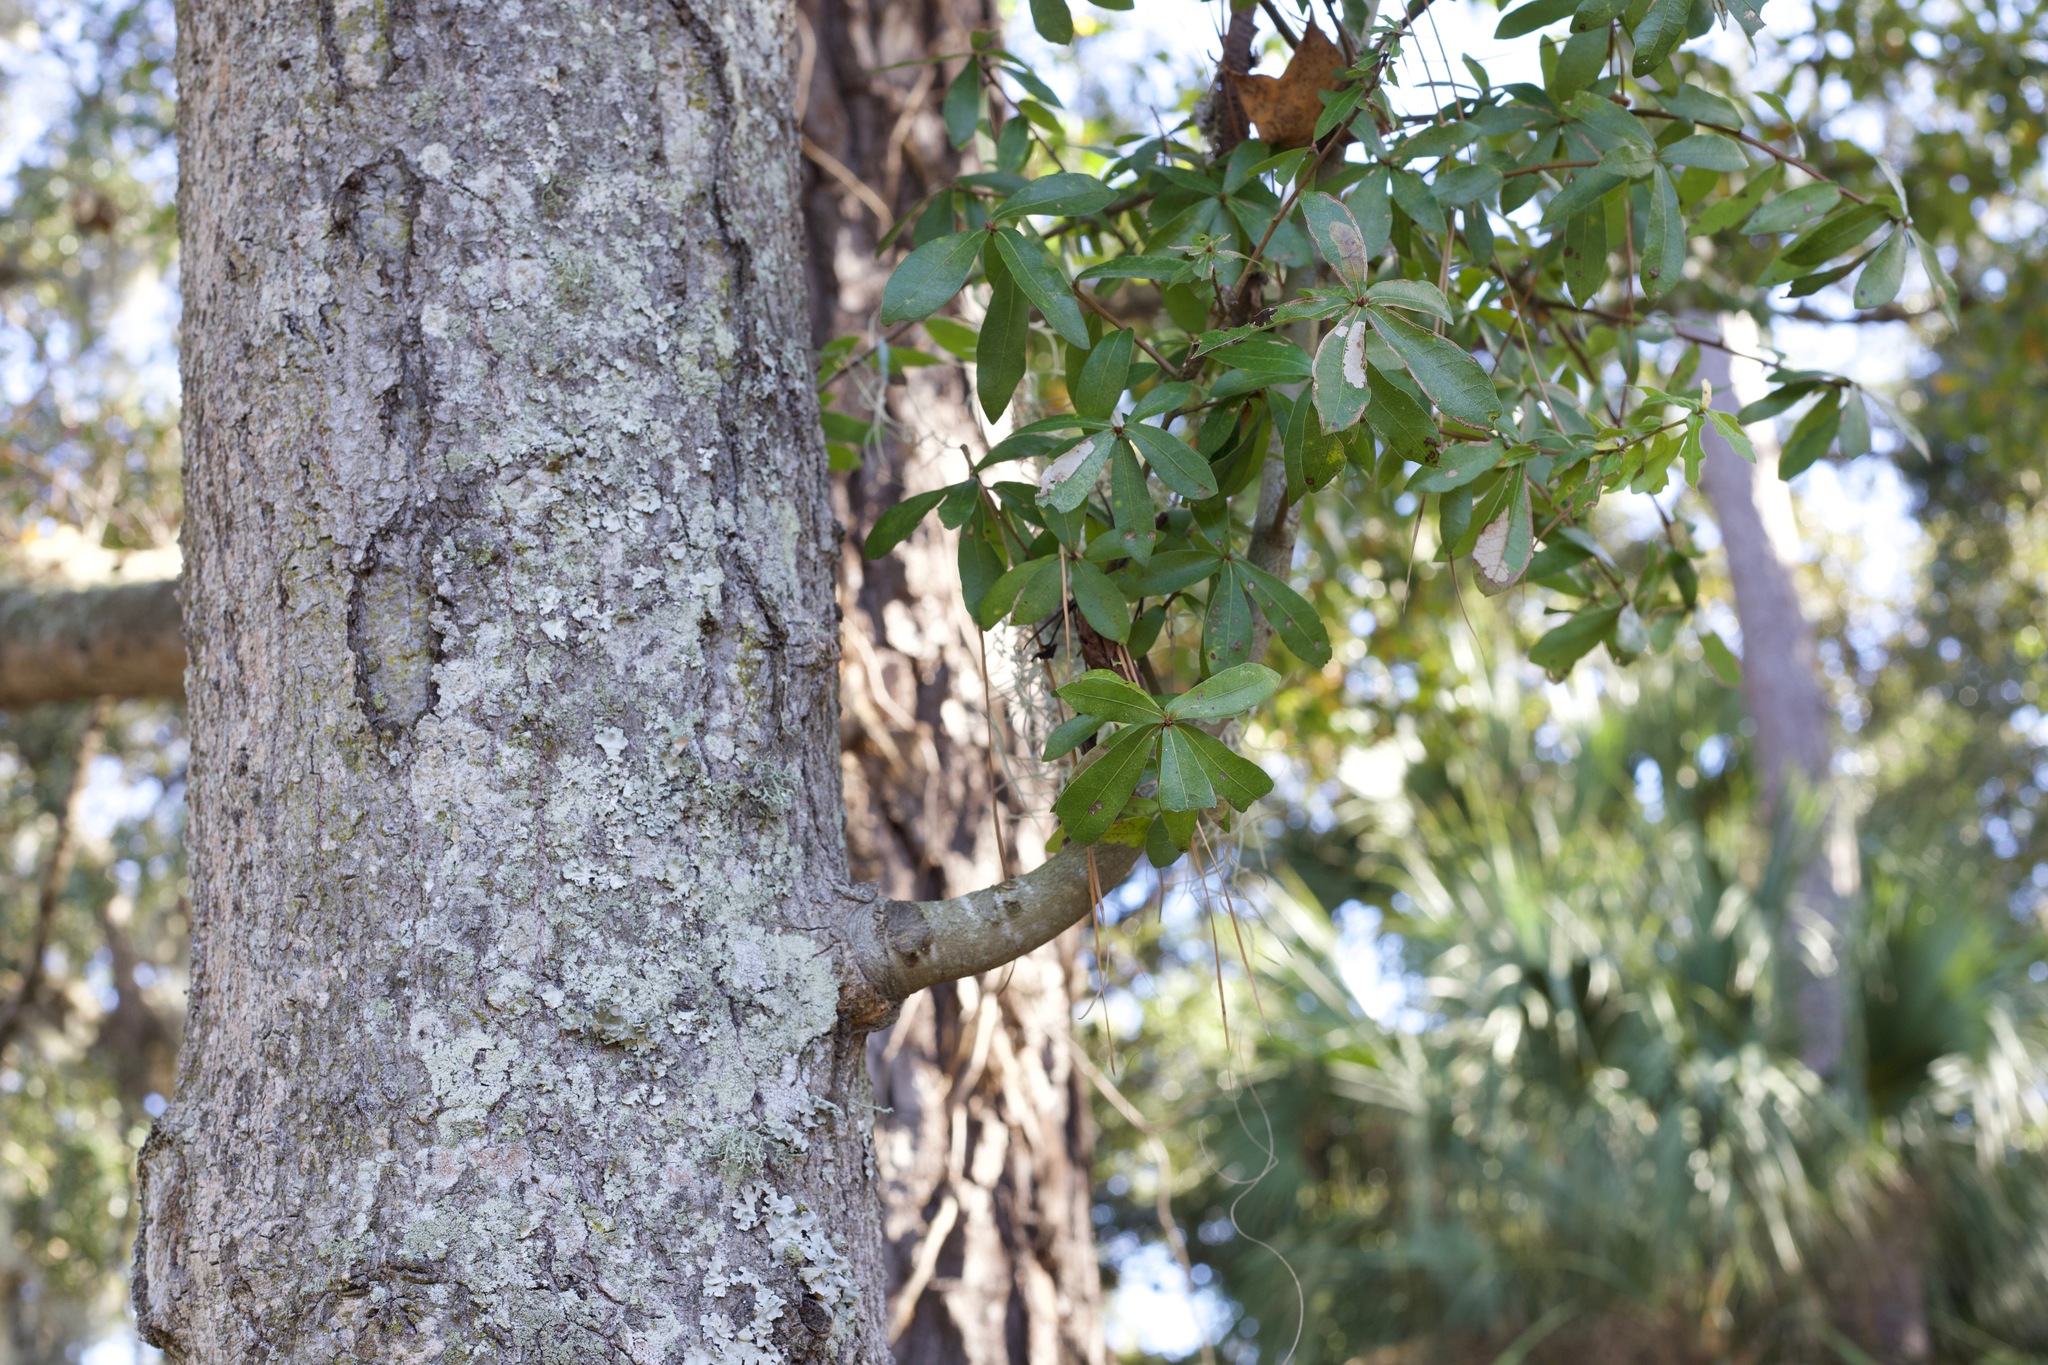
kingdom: Plantae
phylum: Tracheophyta
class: Magnoliopsida
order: Fagales
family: Fagaceae
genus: Quercus
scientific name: Quercus laurifolia
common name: Swamp laurel oak
